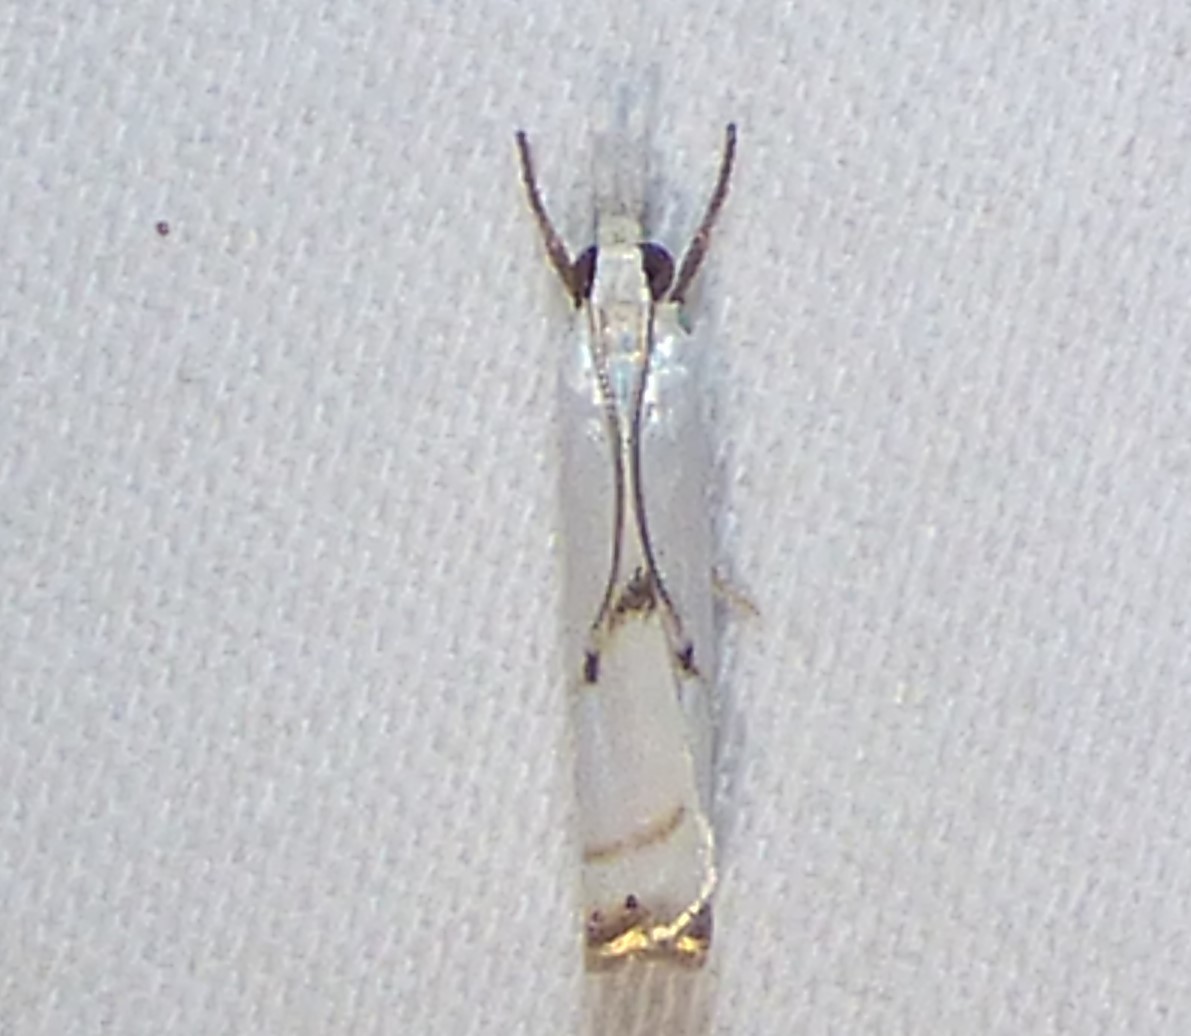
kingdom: Animalia
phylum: Arthropoda
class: Insecta
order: Lepidoptera
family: Crambidae
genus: Microcrambus
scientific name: Microcrambus biguttellus
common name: Gold-stripe grass-veneer moth
